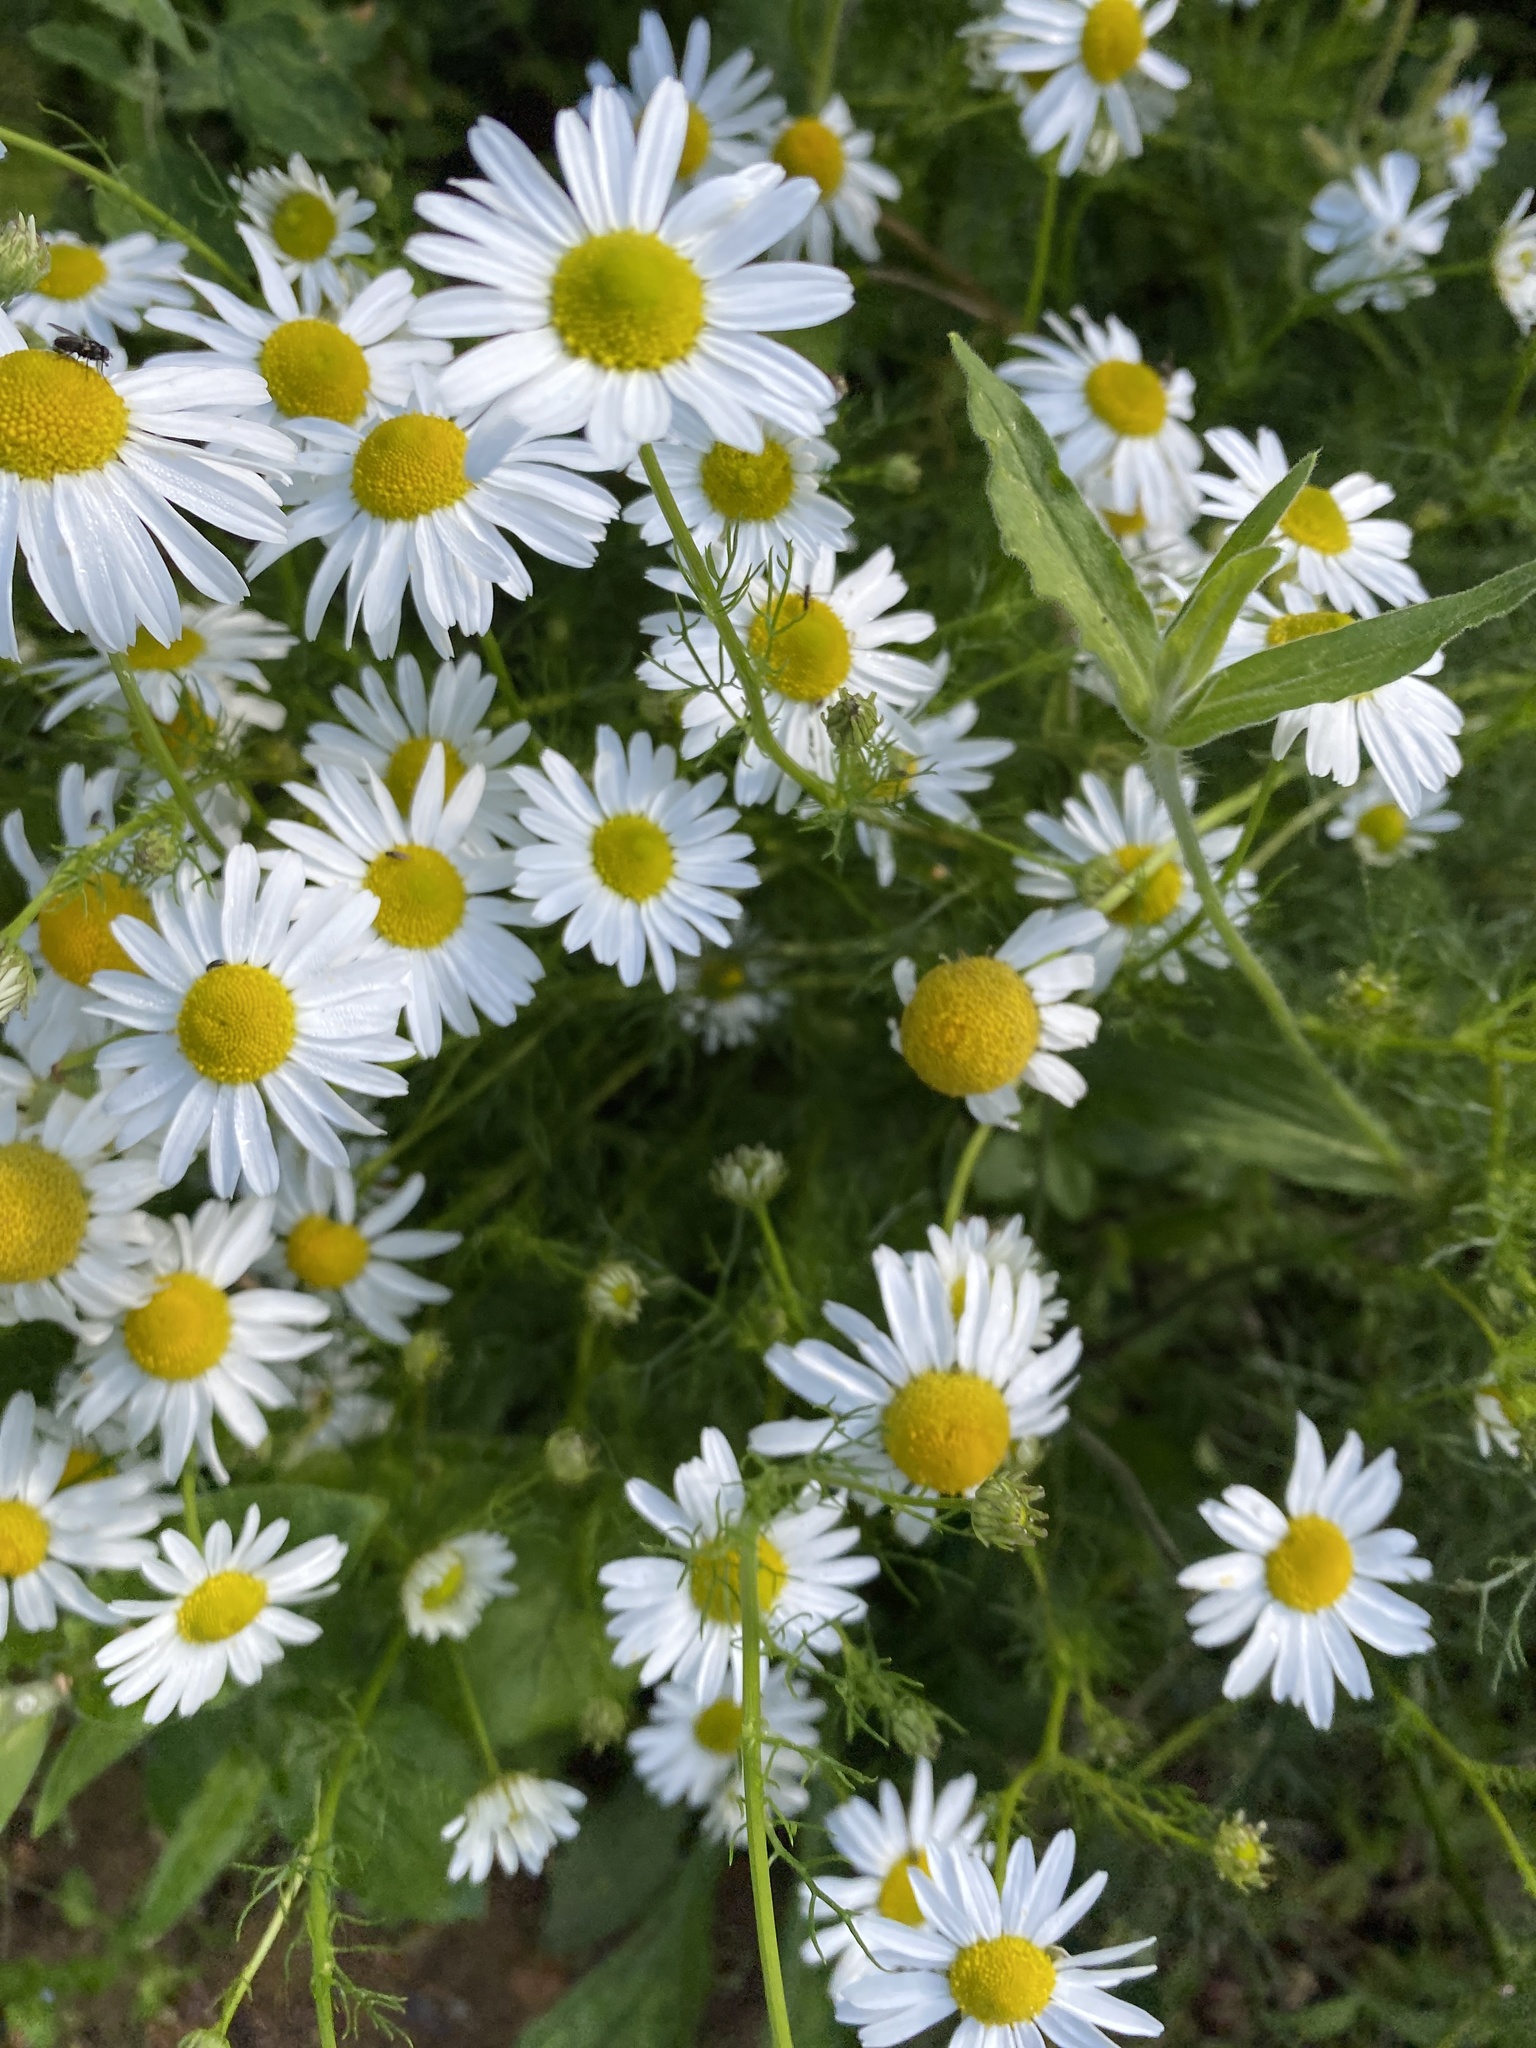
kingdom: Plantae
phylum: Tracheophyta
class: Magnoliopsida
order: Asterales
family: Asteraceae
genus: Matricaria
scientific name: Matricaria chamomilla
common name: Scented mayweed
